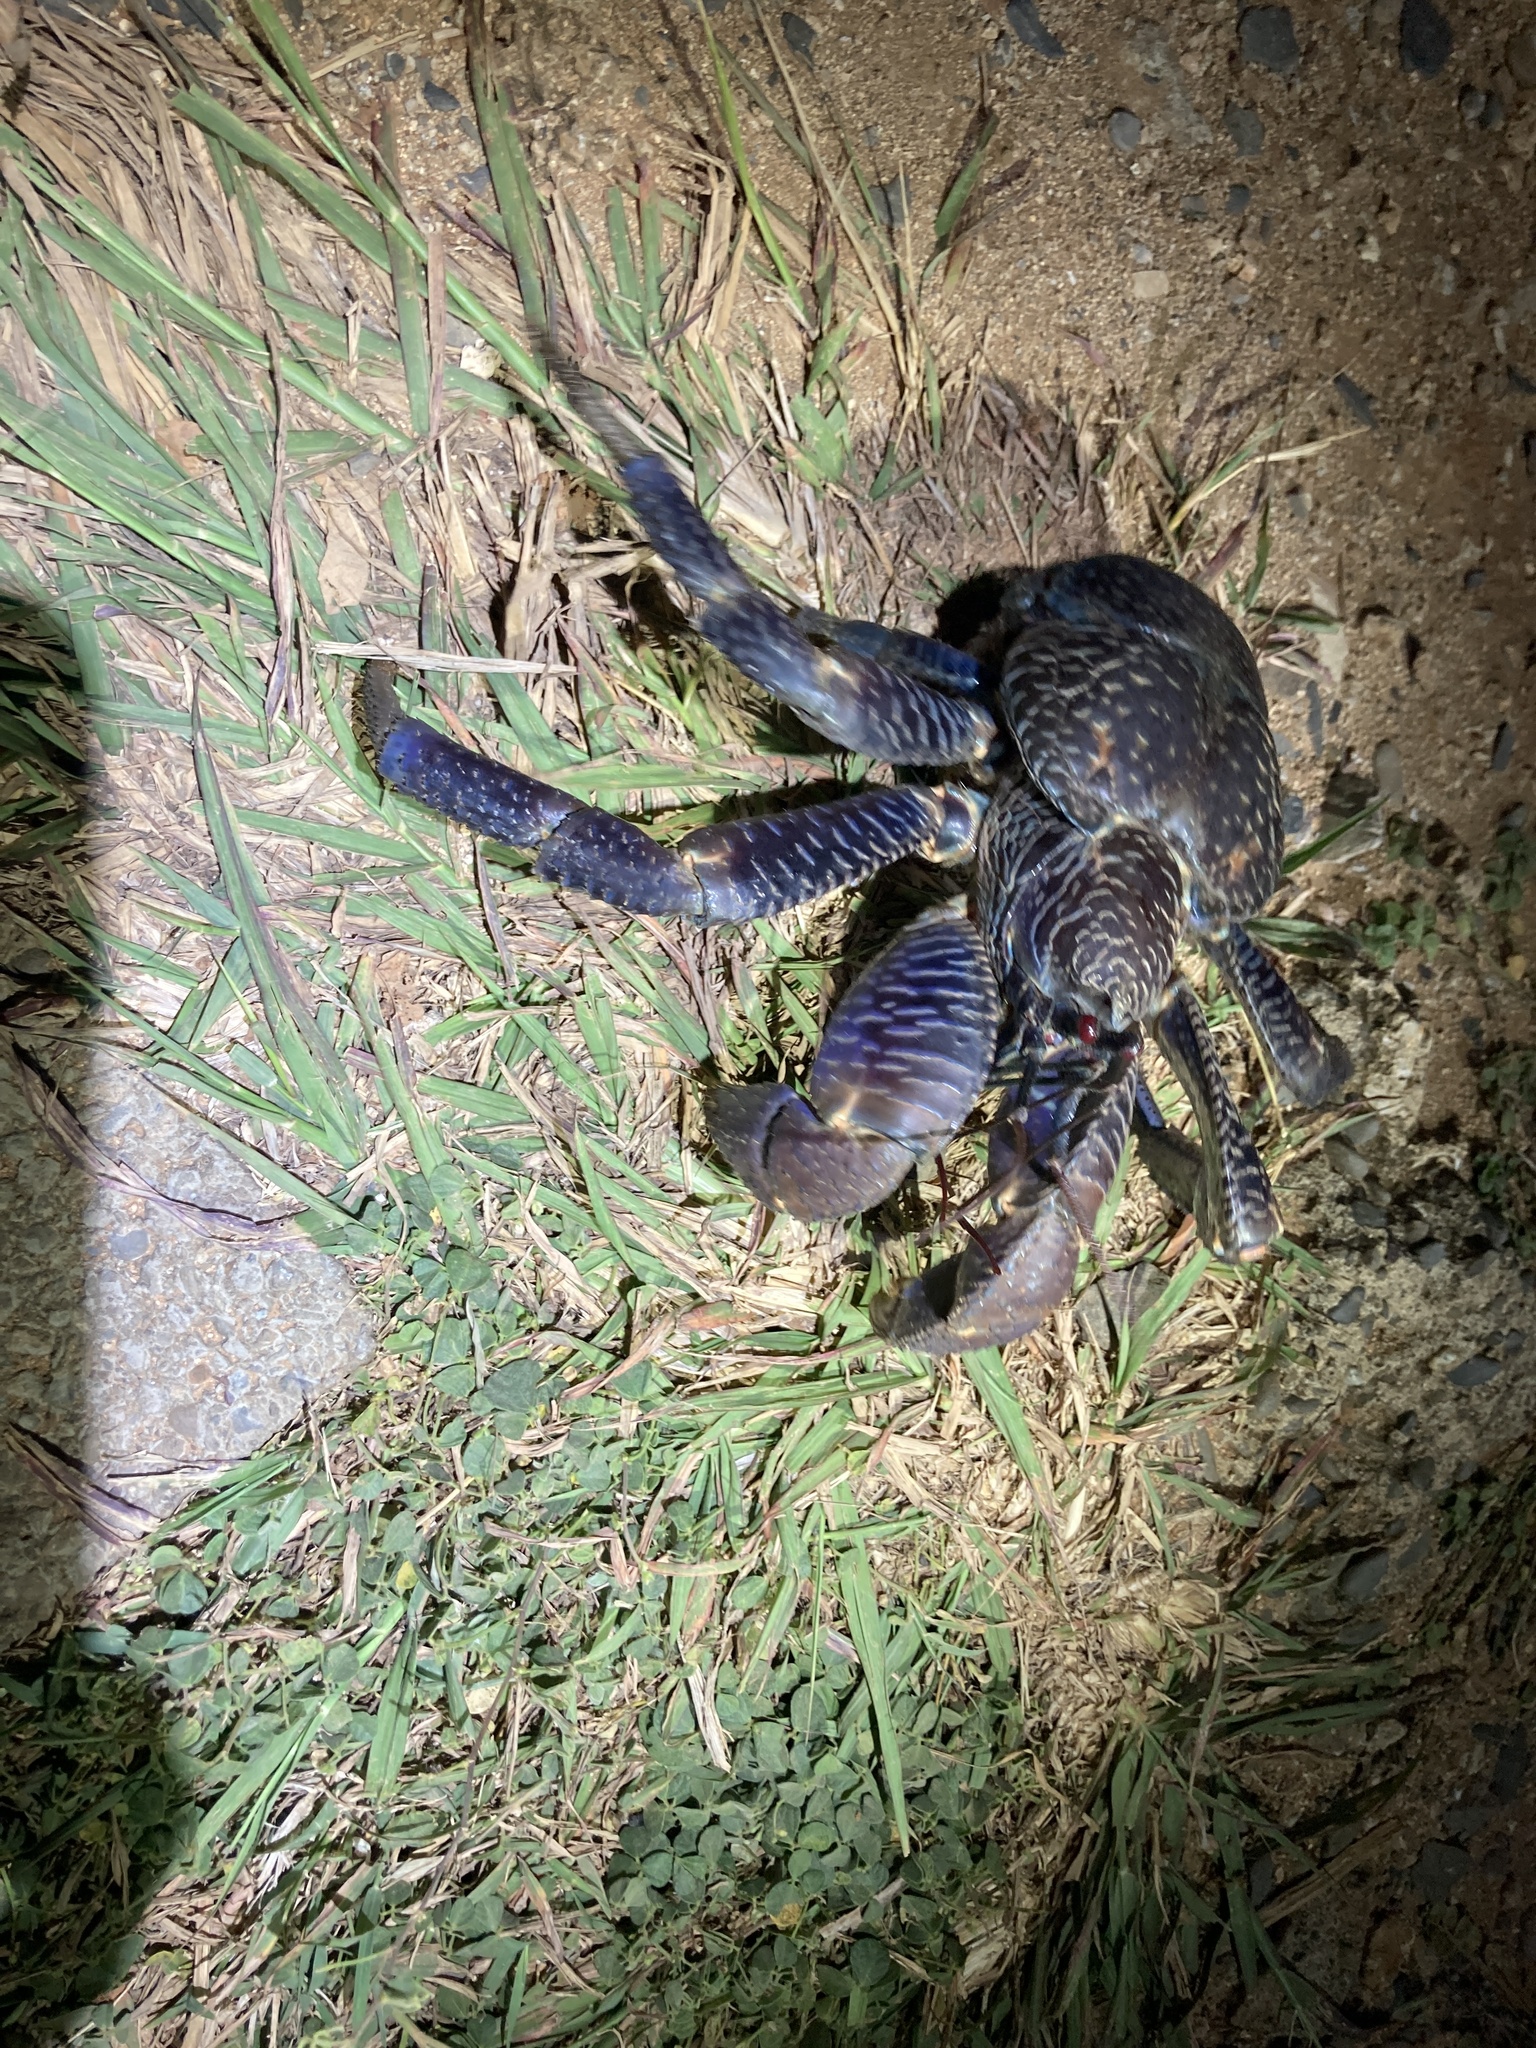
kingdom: Animalia
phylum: Arthropoda
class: Malacostraca
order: Decapoda
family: Coenobitidae
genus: Birgus
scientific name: Birgus latro
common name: Coconut crab
